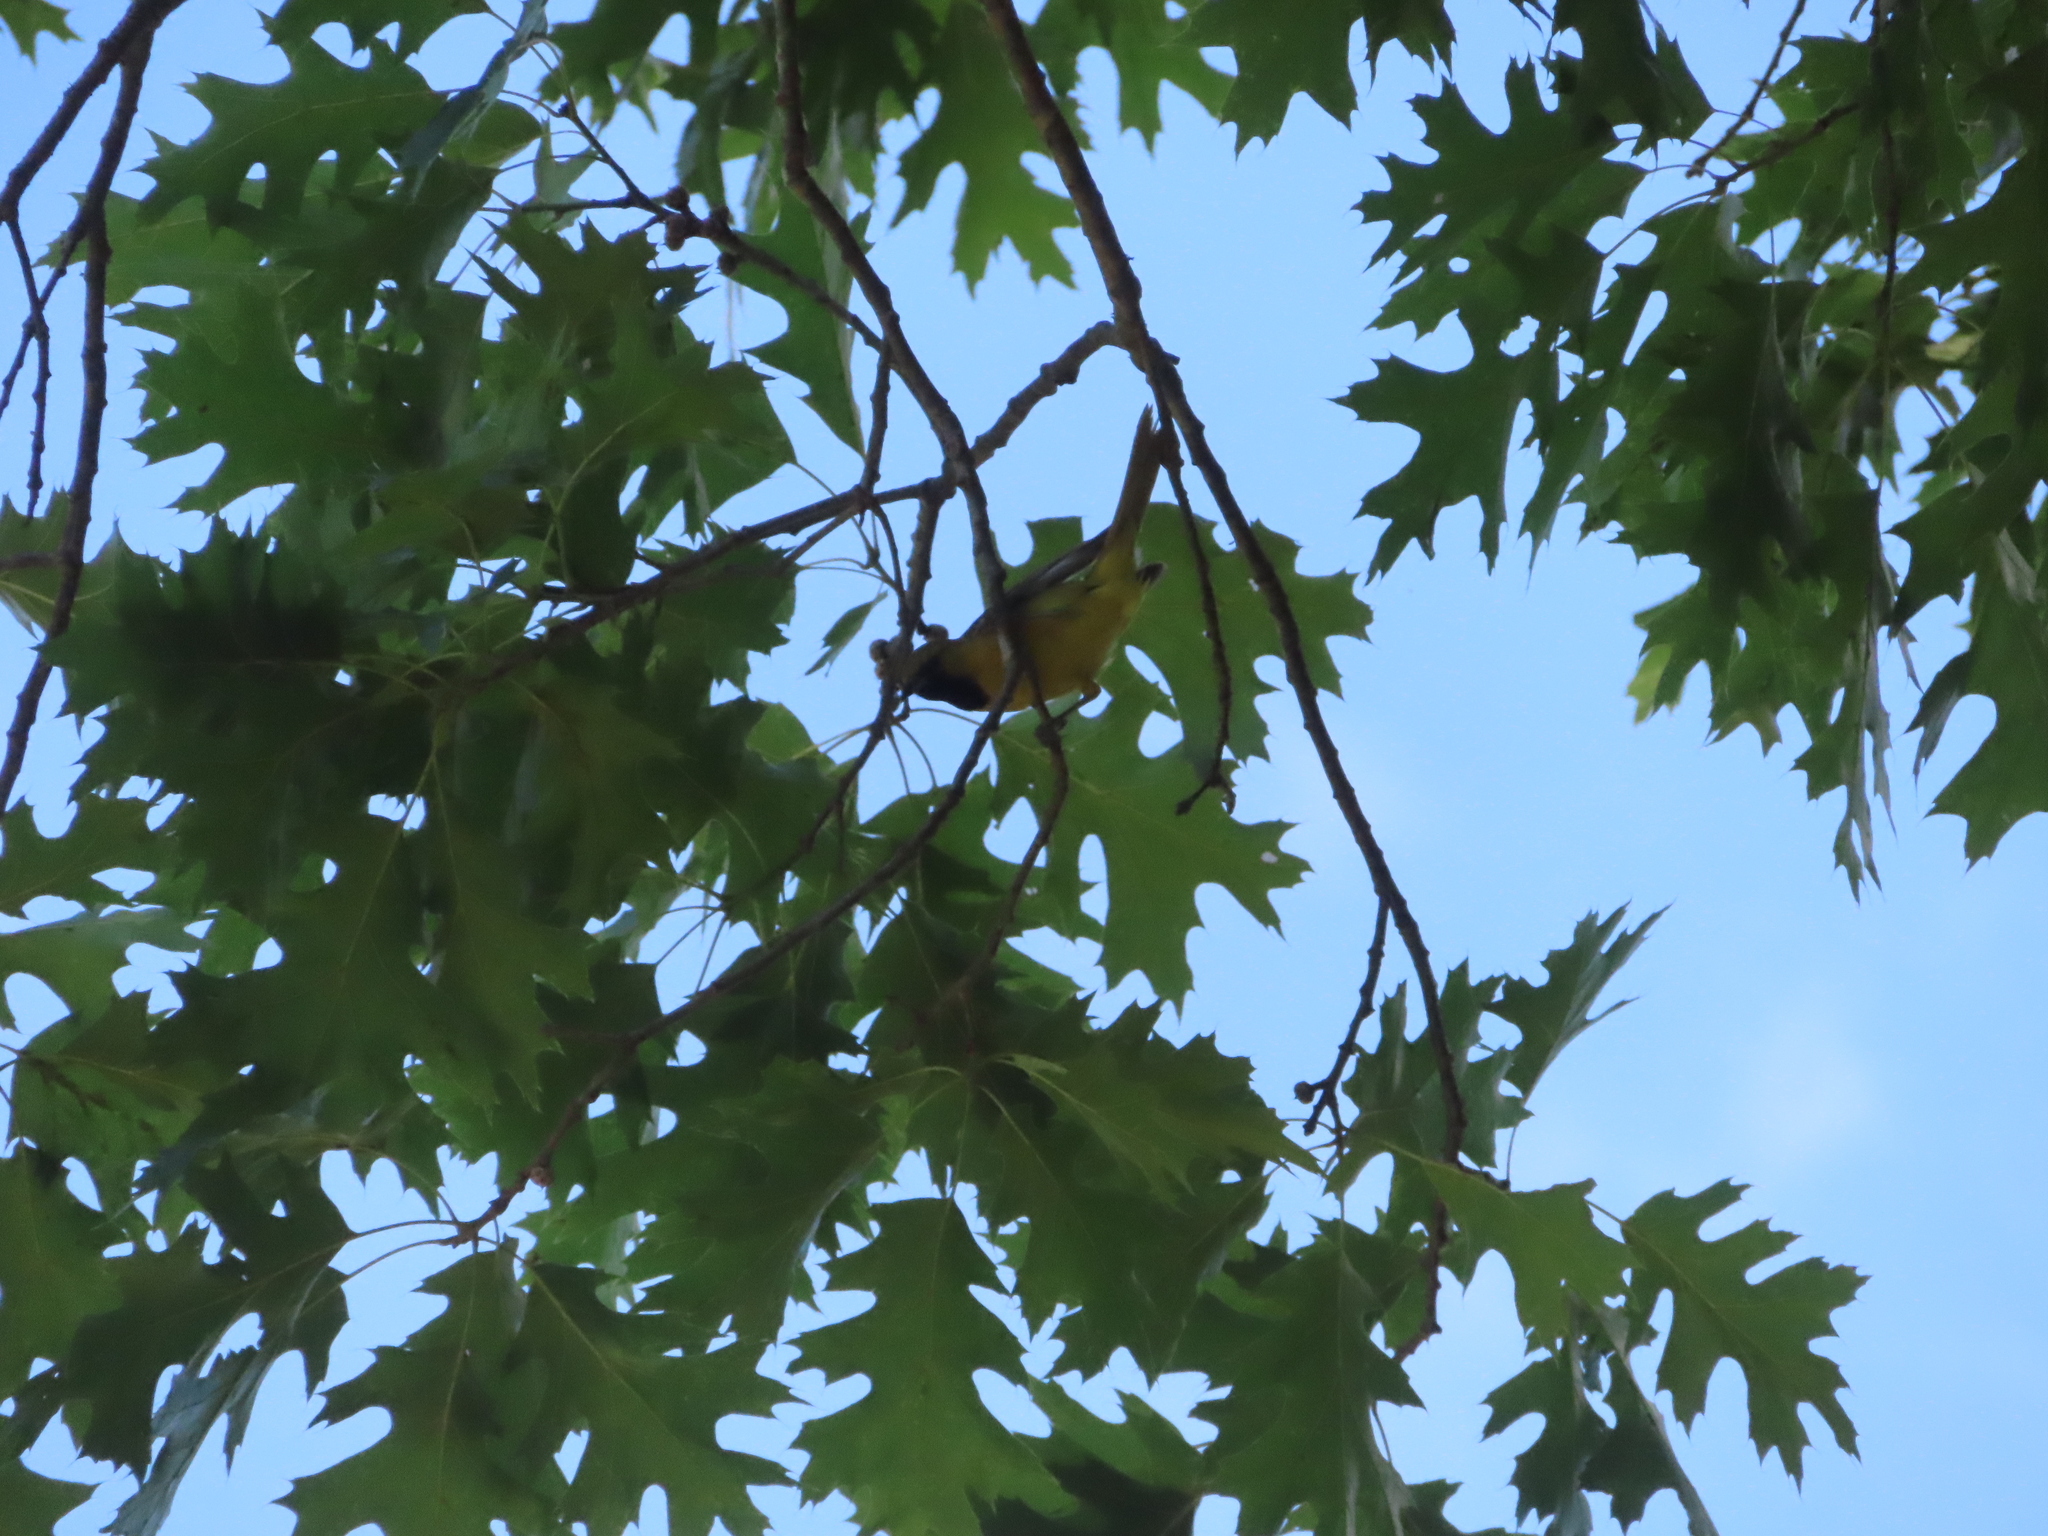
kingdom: Animalia
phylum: Chordata
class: Aves
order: Passeriformes
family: Icteridae
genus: Icterus
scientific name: Icterus spurius
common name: Orchard oriole
